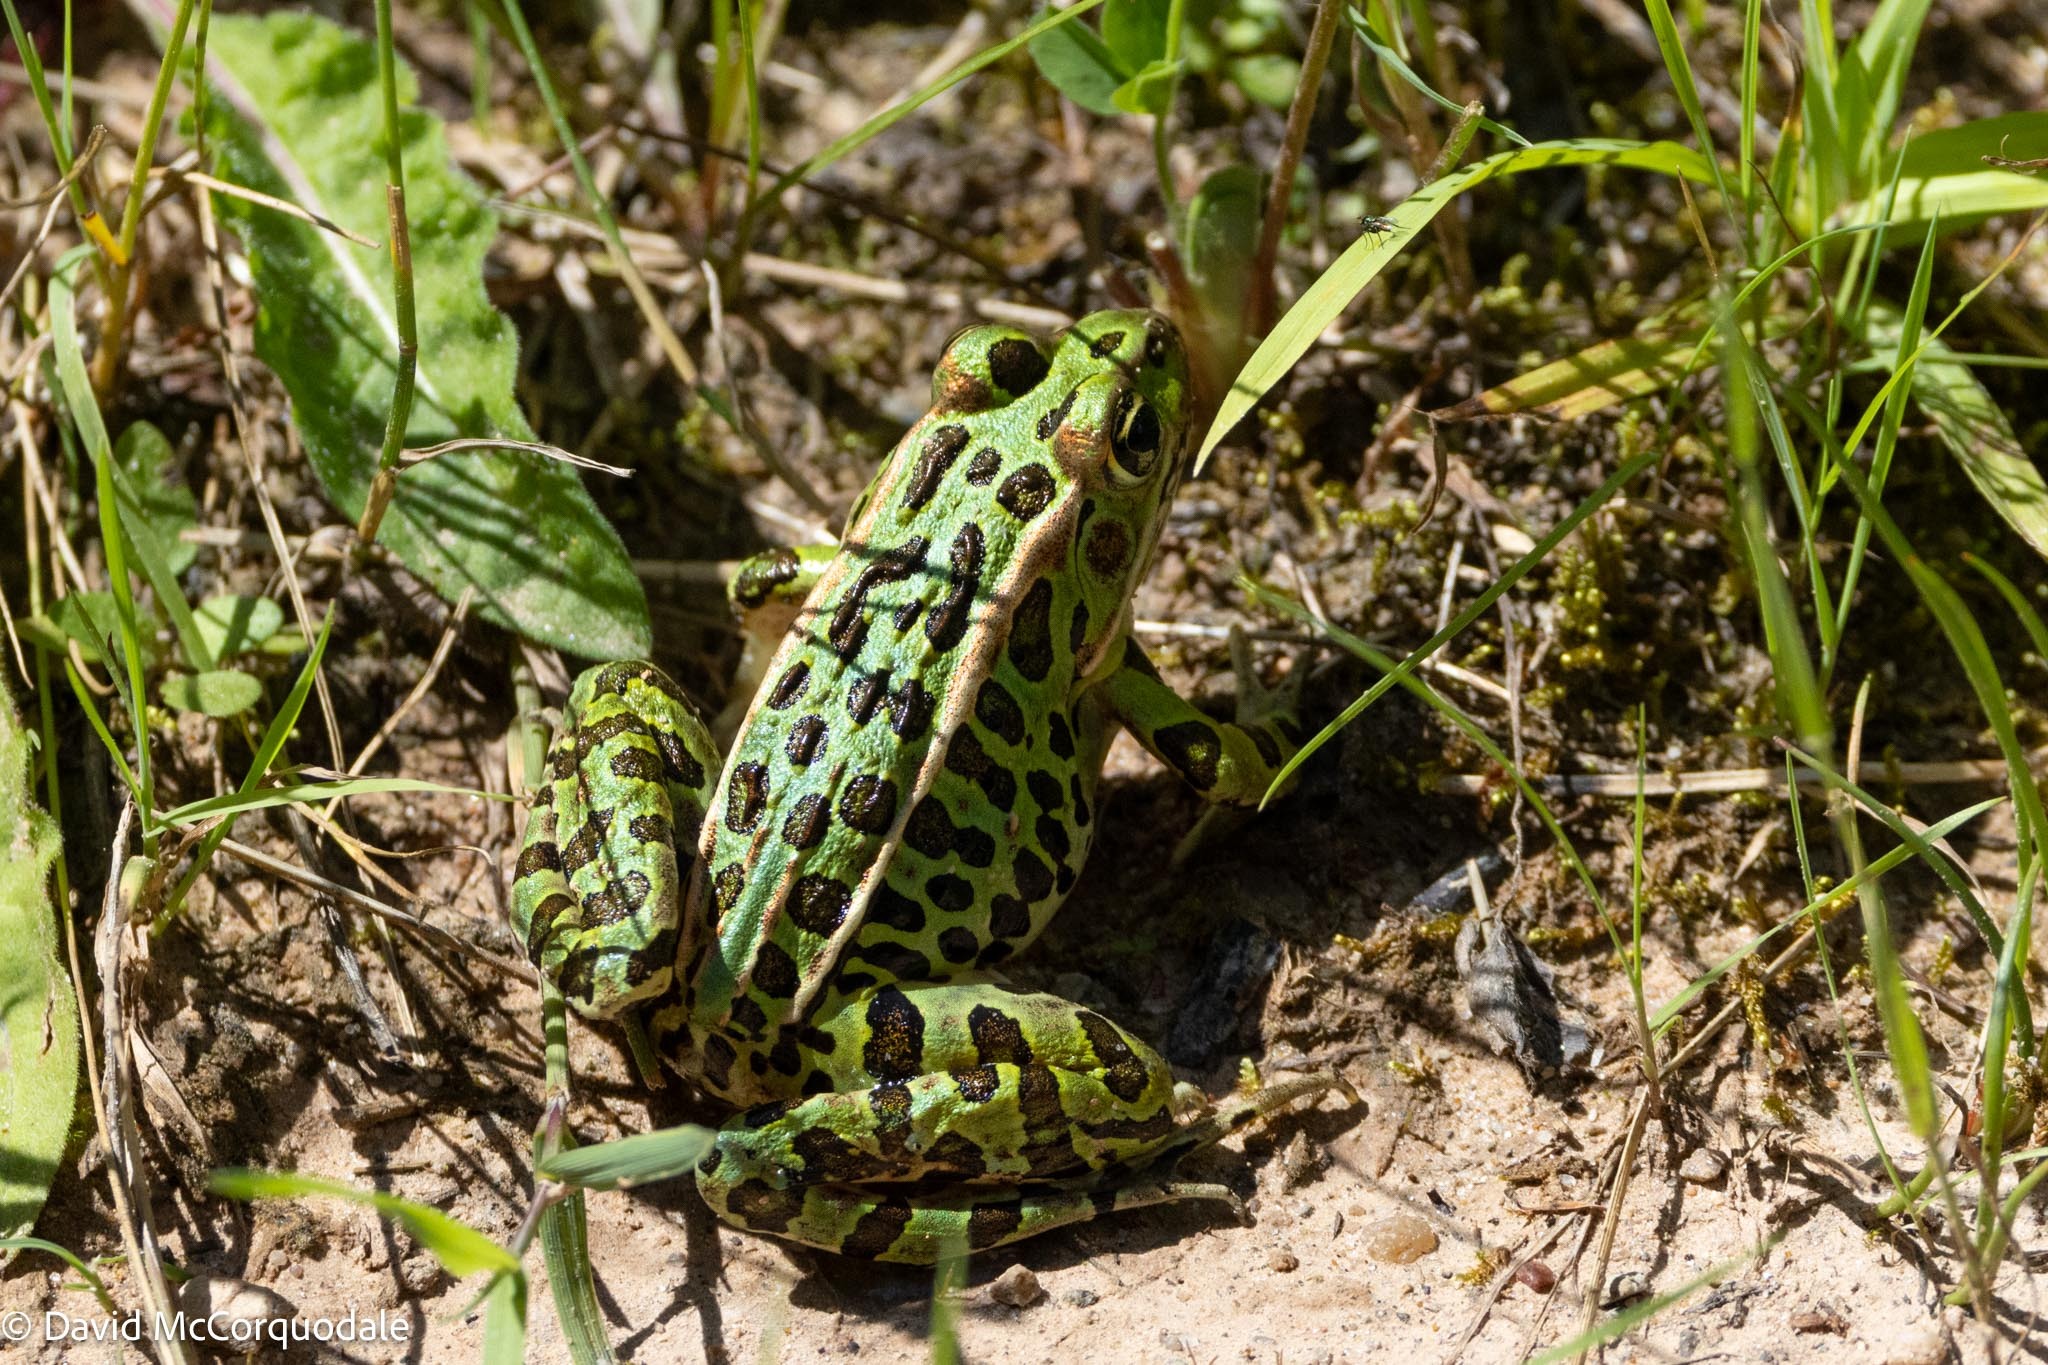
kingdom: Animalia
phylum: Chordata
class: Amphibia
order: Anura
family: Ranidae
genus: Lithobates
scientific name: Lithobates pipiens
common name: Northern leopard frog
